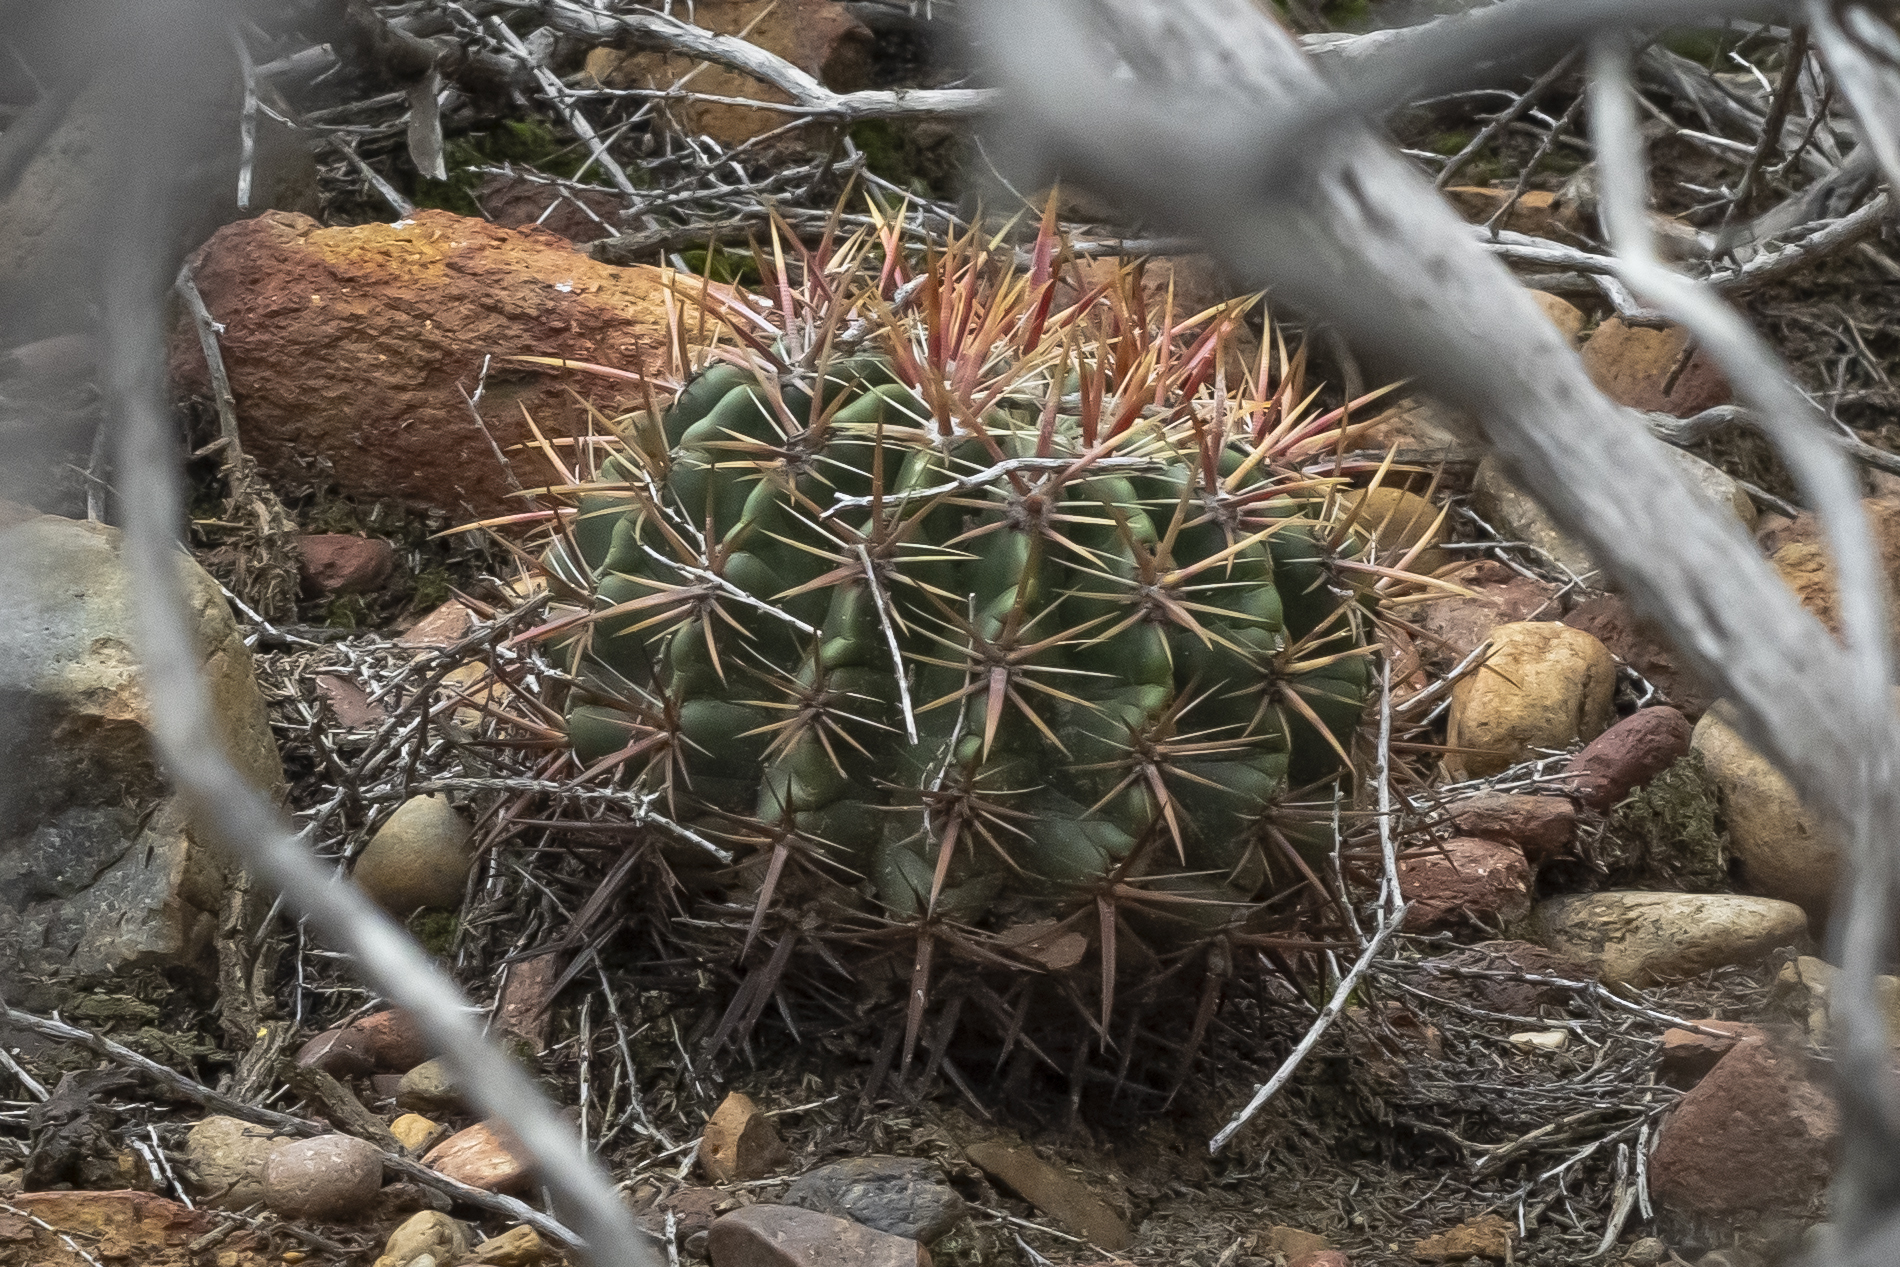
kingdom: Plantae
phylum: Tracheophyta
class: Magnoliopsida
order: Caryophyllales
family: Cactaceae
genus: Ferocactus
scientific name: Ferocactus viridescens
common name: San diego barrel cactus
